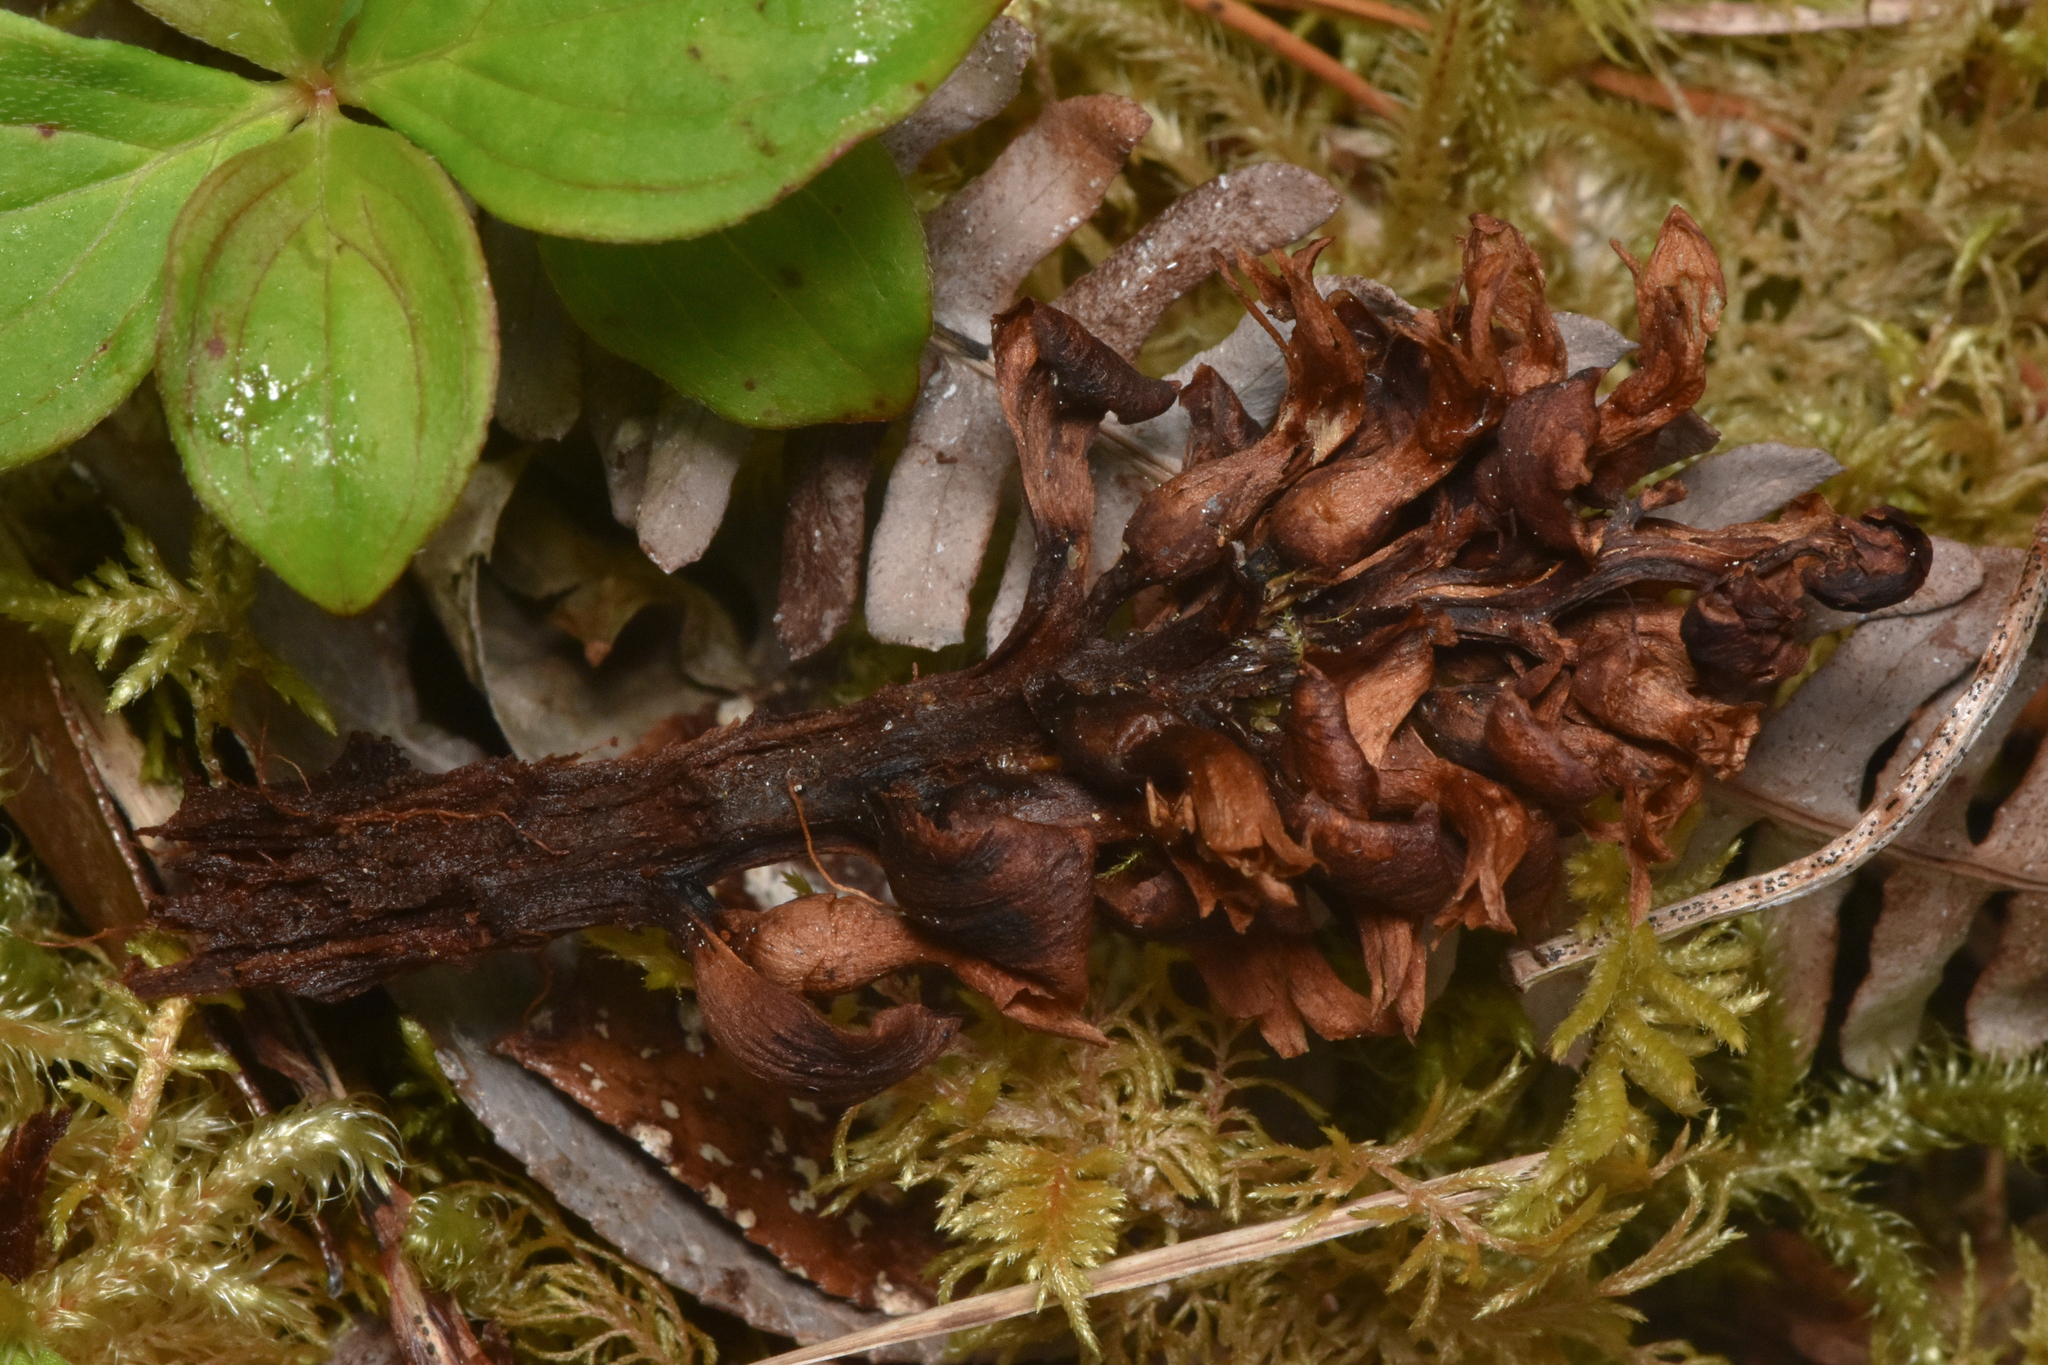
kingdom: Plantae
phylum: Tracheophyta
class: Magnoliopsida
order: Lamiales
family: Orobanchaceae
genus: Kopsiopsis
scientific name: Kopsiopsis hookeri
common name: Hooker's groundcone
